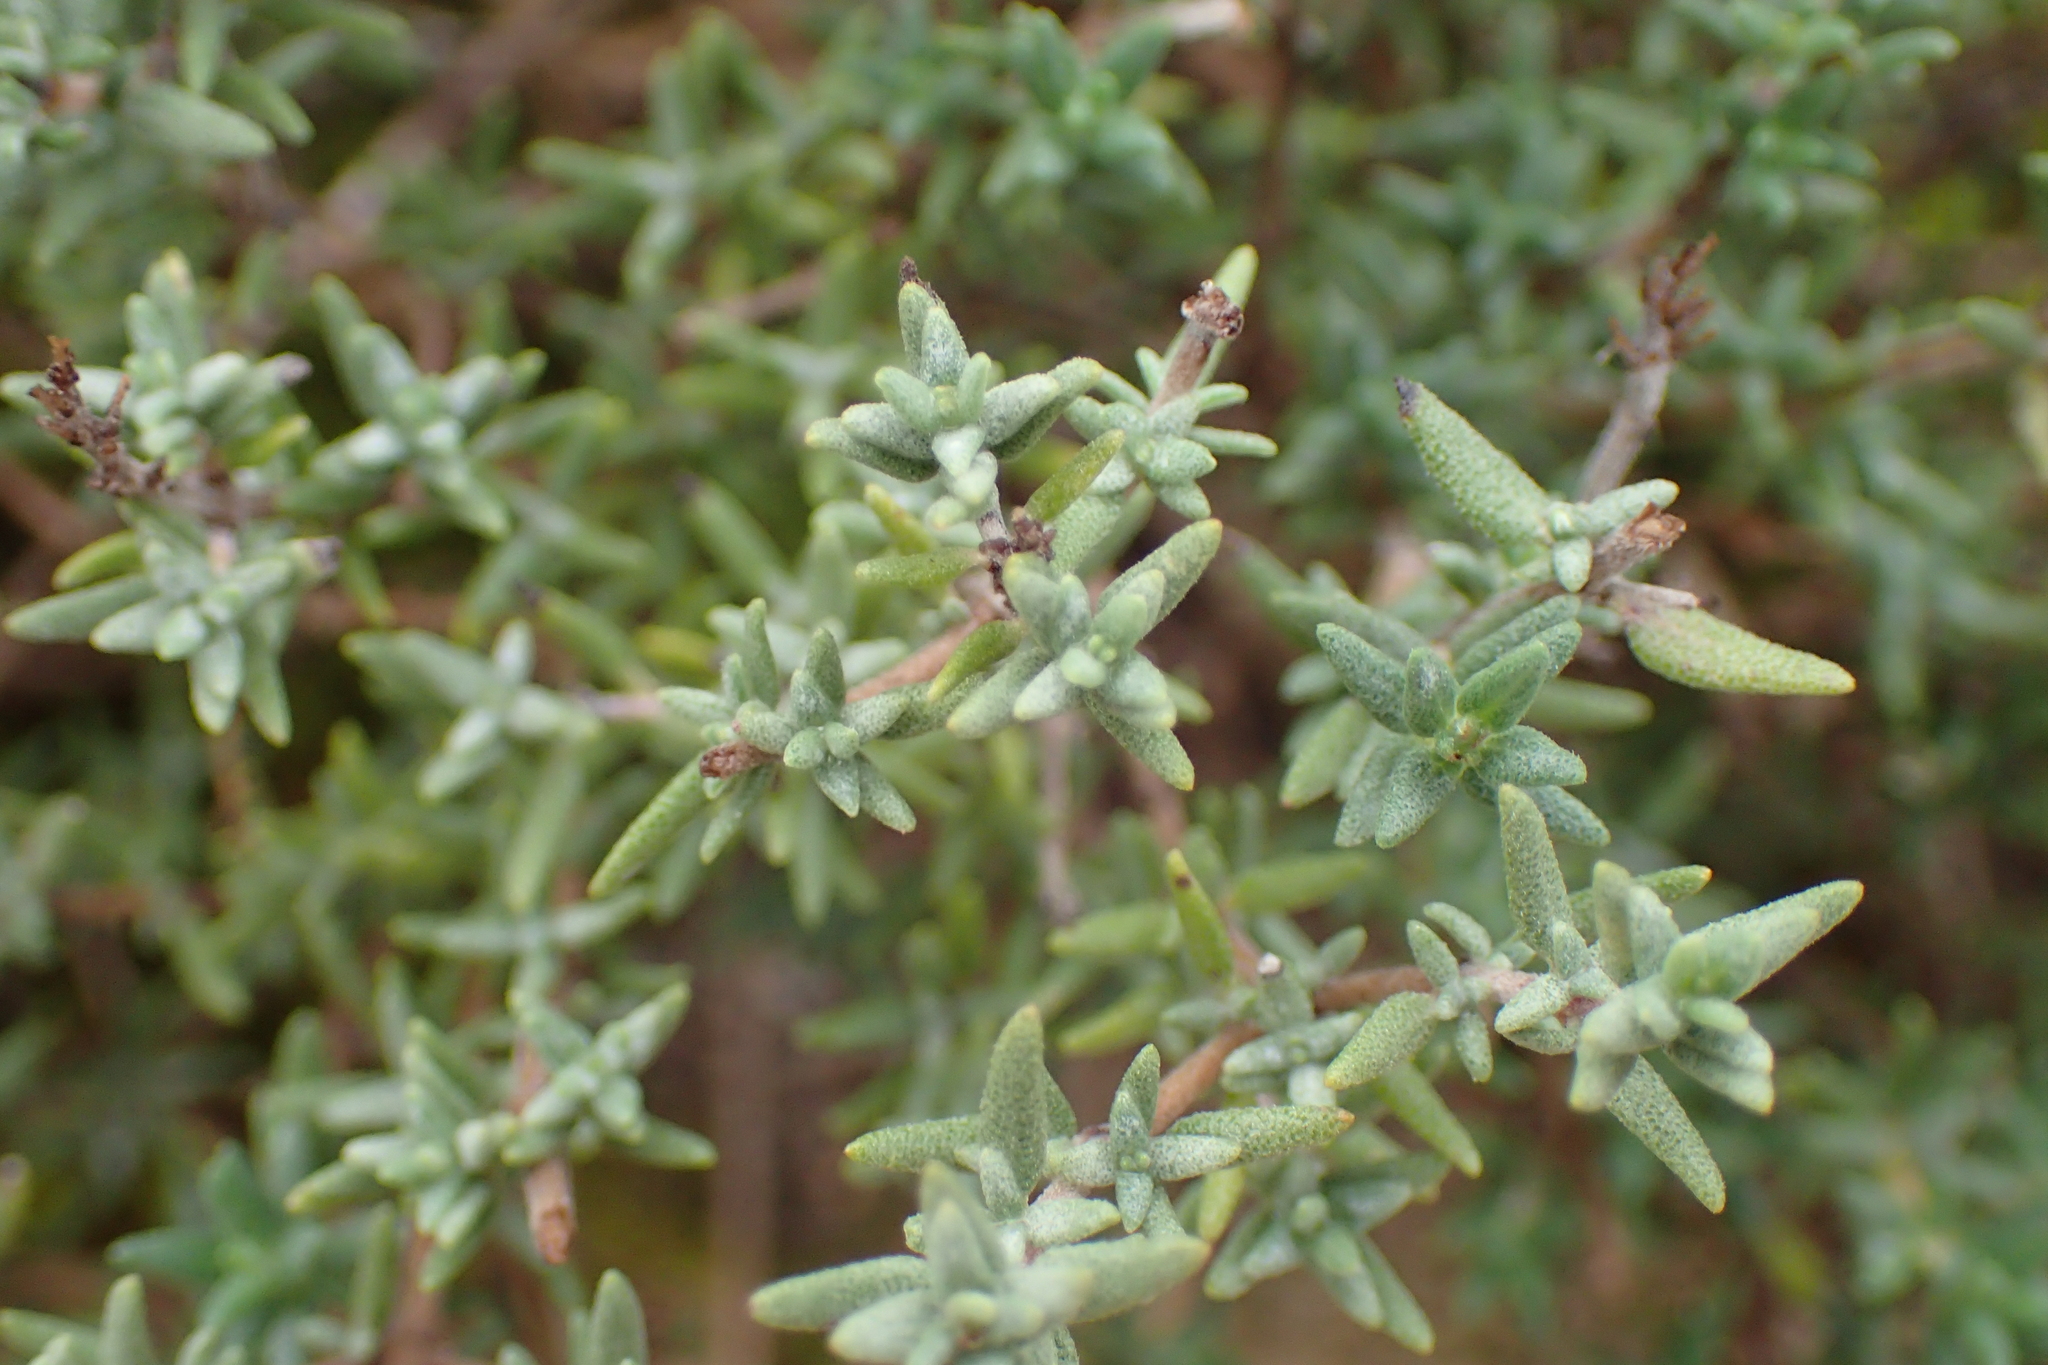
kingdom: Plantae
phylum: Tracheophyta
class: Magnoliopsida
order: Lamiales
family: Lamiaceae
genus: Thymus
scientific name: Thymus vulgaris
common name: Garden thyme
